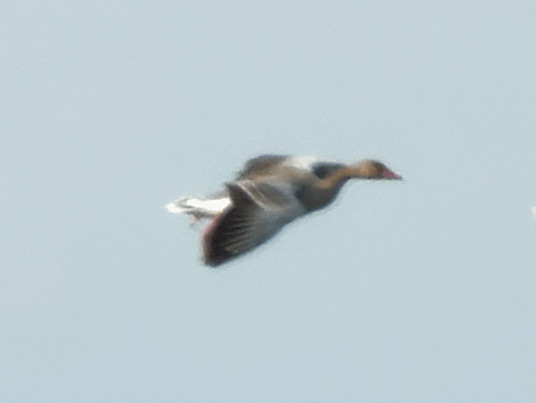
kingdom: Animalia
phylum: Chordata
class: Aves
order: Anseriformes
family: Anatidae
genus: Anser
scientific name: Anser anser
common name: Greylag goose
